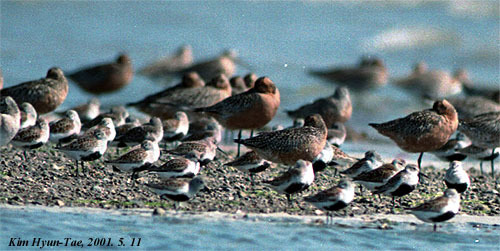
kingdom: Animalia
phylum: Chordata
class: Aves
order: Charadriiformes
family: Scolopacidae
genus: Calidris
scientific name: Calidris alpina
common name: Dunlin
